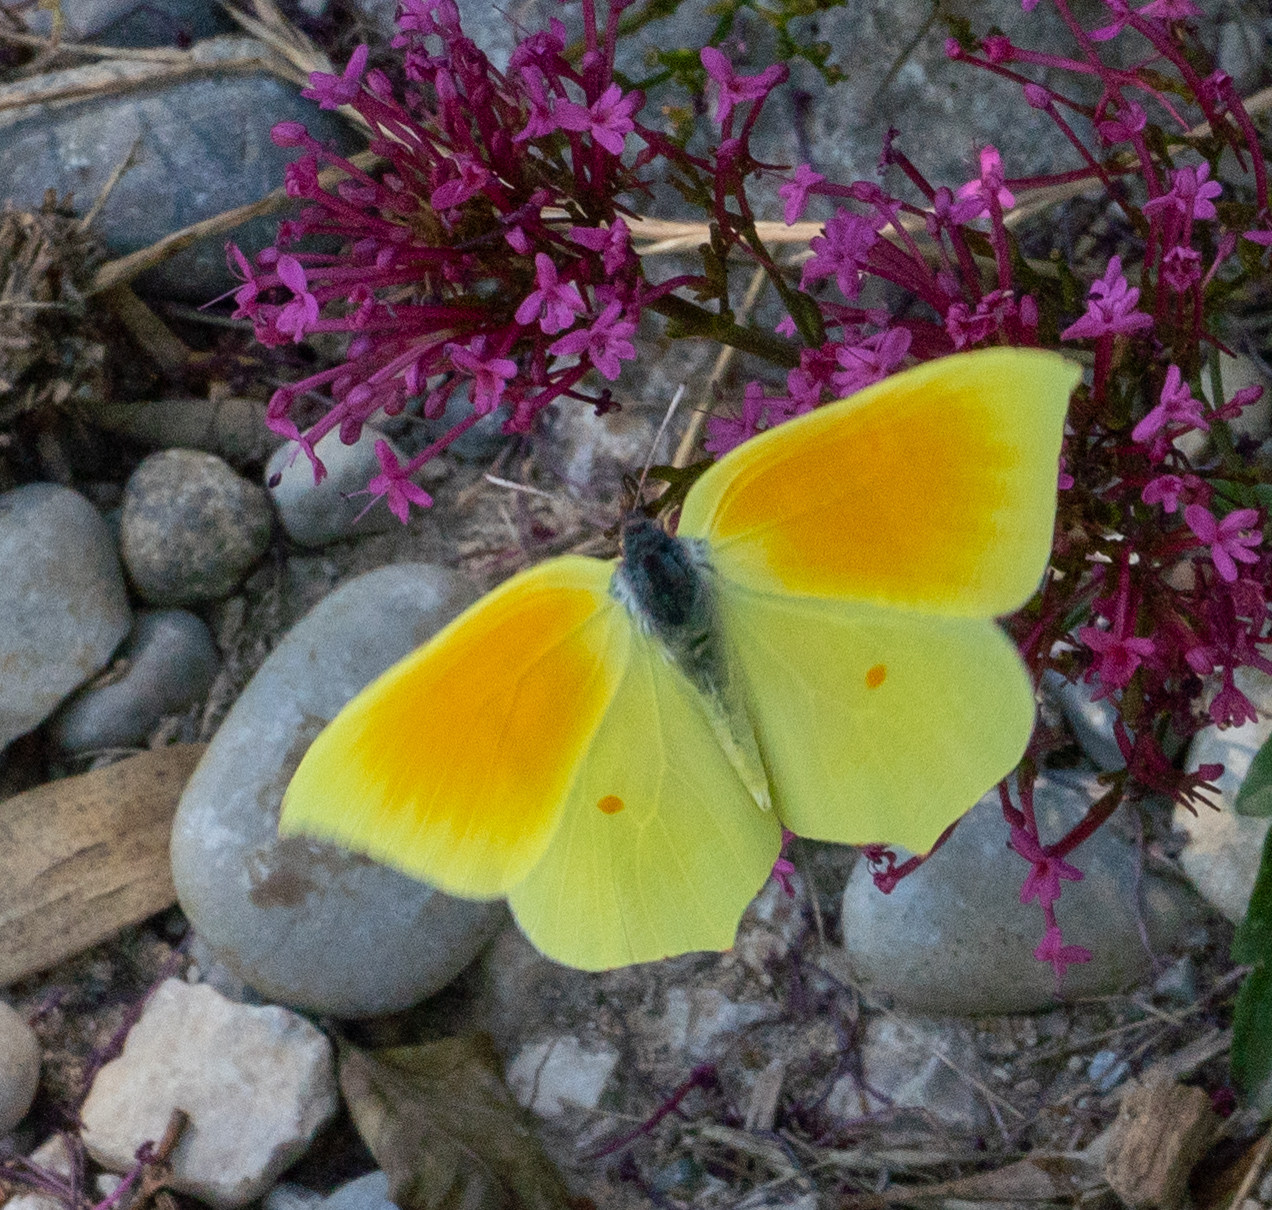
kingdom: Animalia
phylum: Arthropoda
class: Insecta
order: Lepidoptera
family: Pieridae
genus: Gonepteryx
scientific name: Gonepteryx cleopatra
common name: Cleopatra
